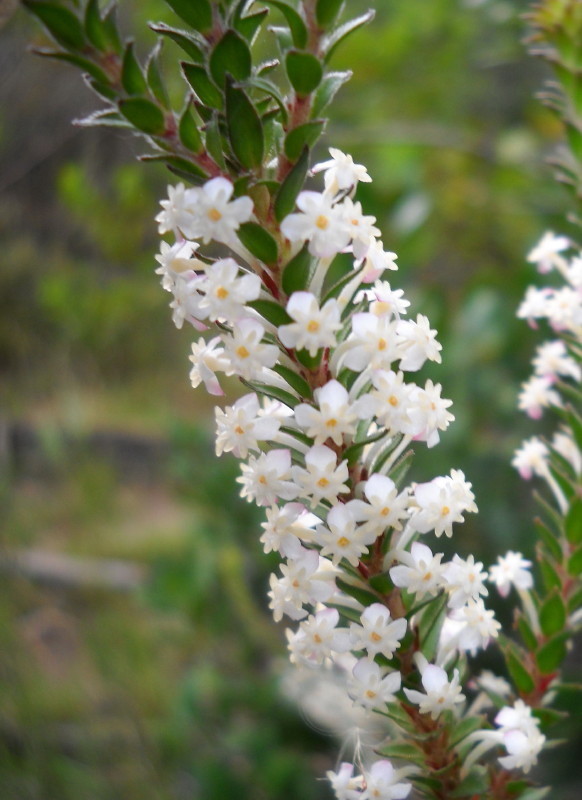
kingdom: Plantae
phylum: Tracheophyta
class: Magnoliopsida
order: Malvales
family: Thymelaeaceae
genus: Struthiola
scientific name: Struthiola hirsuta
